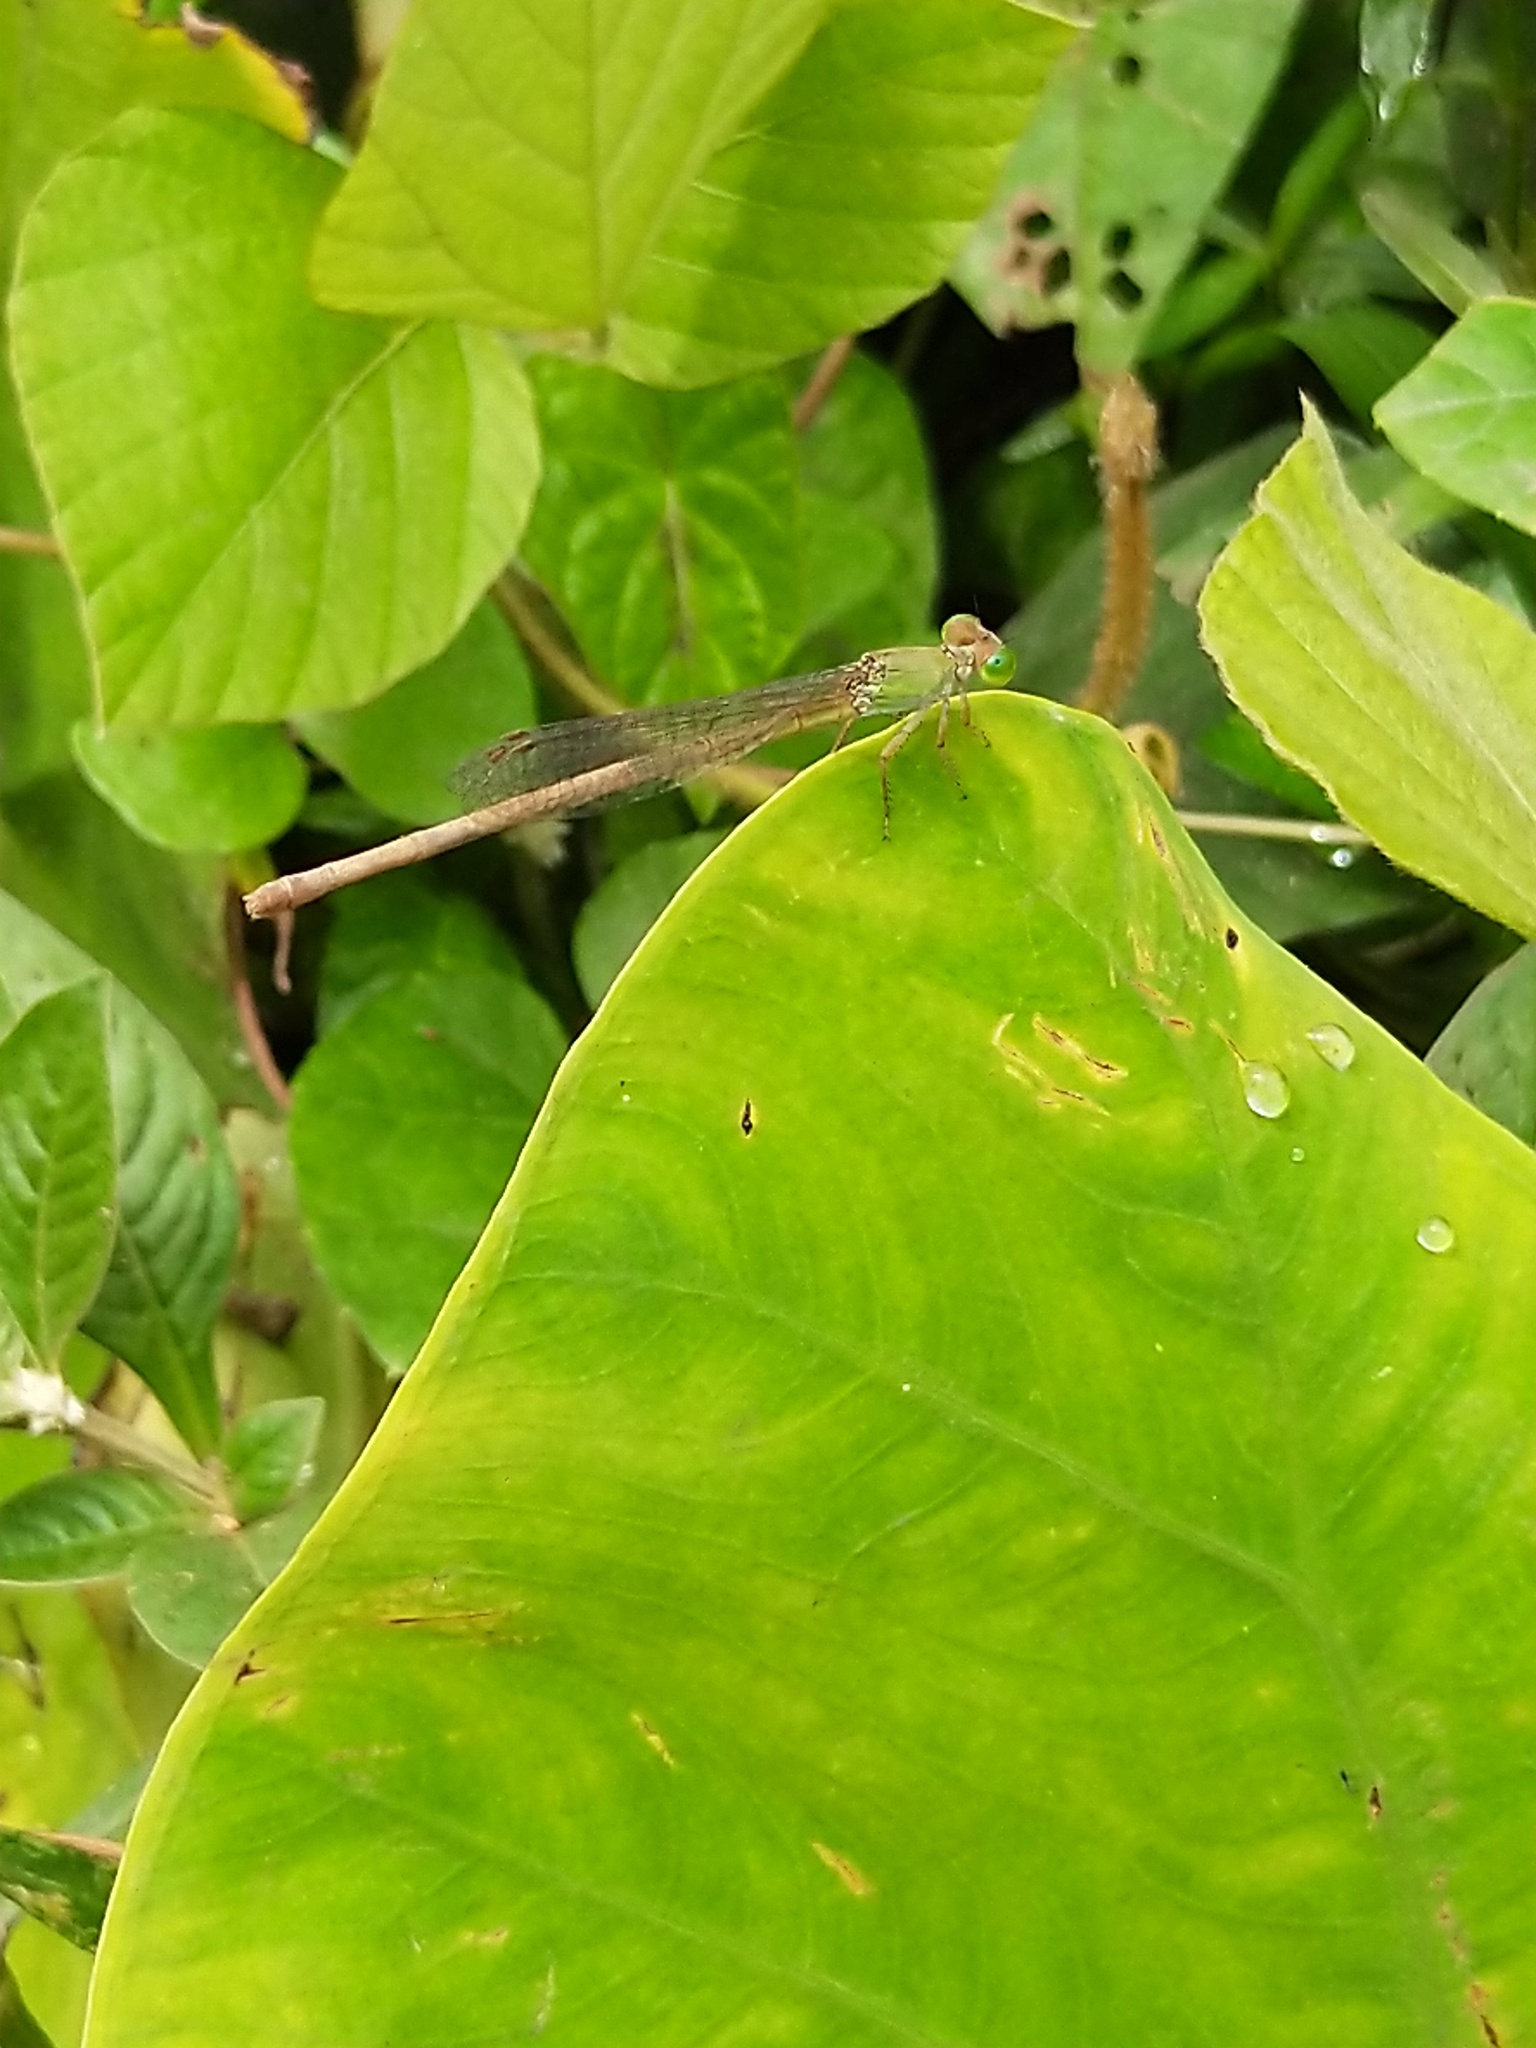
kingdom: Animalia
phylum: Arthropoda
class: Insecta
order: Odonata
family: Coenagrionidae
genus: Ceriagrion
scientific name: Ceriagrion coromandelianum
